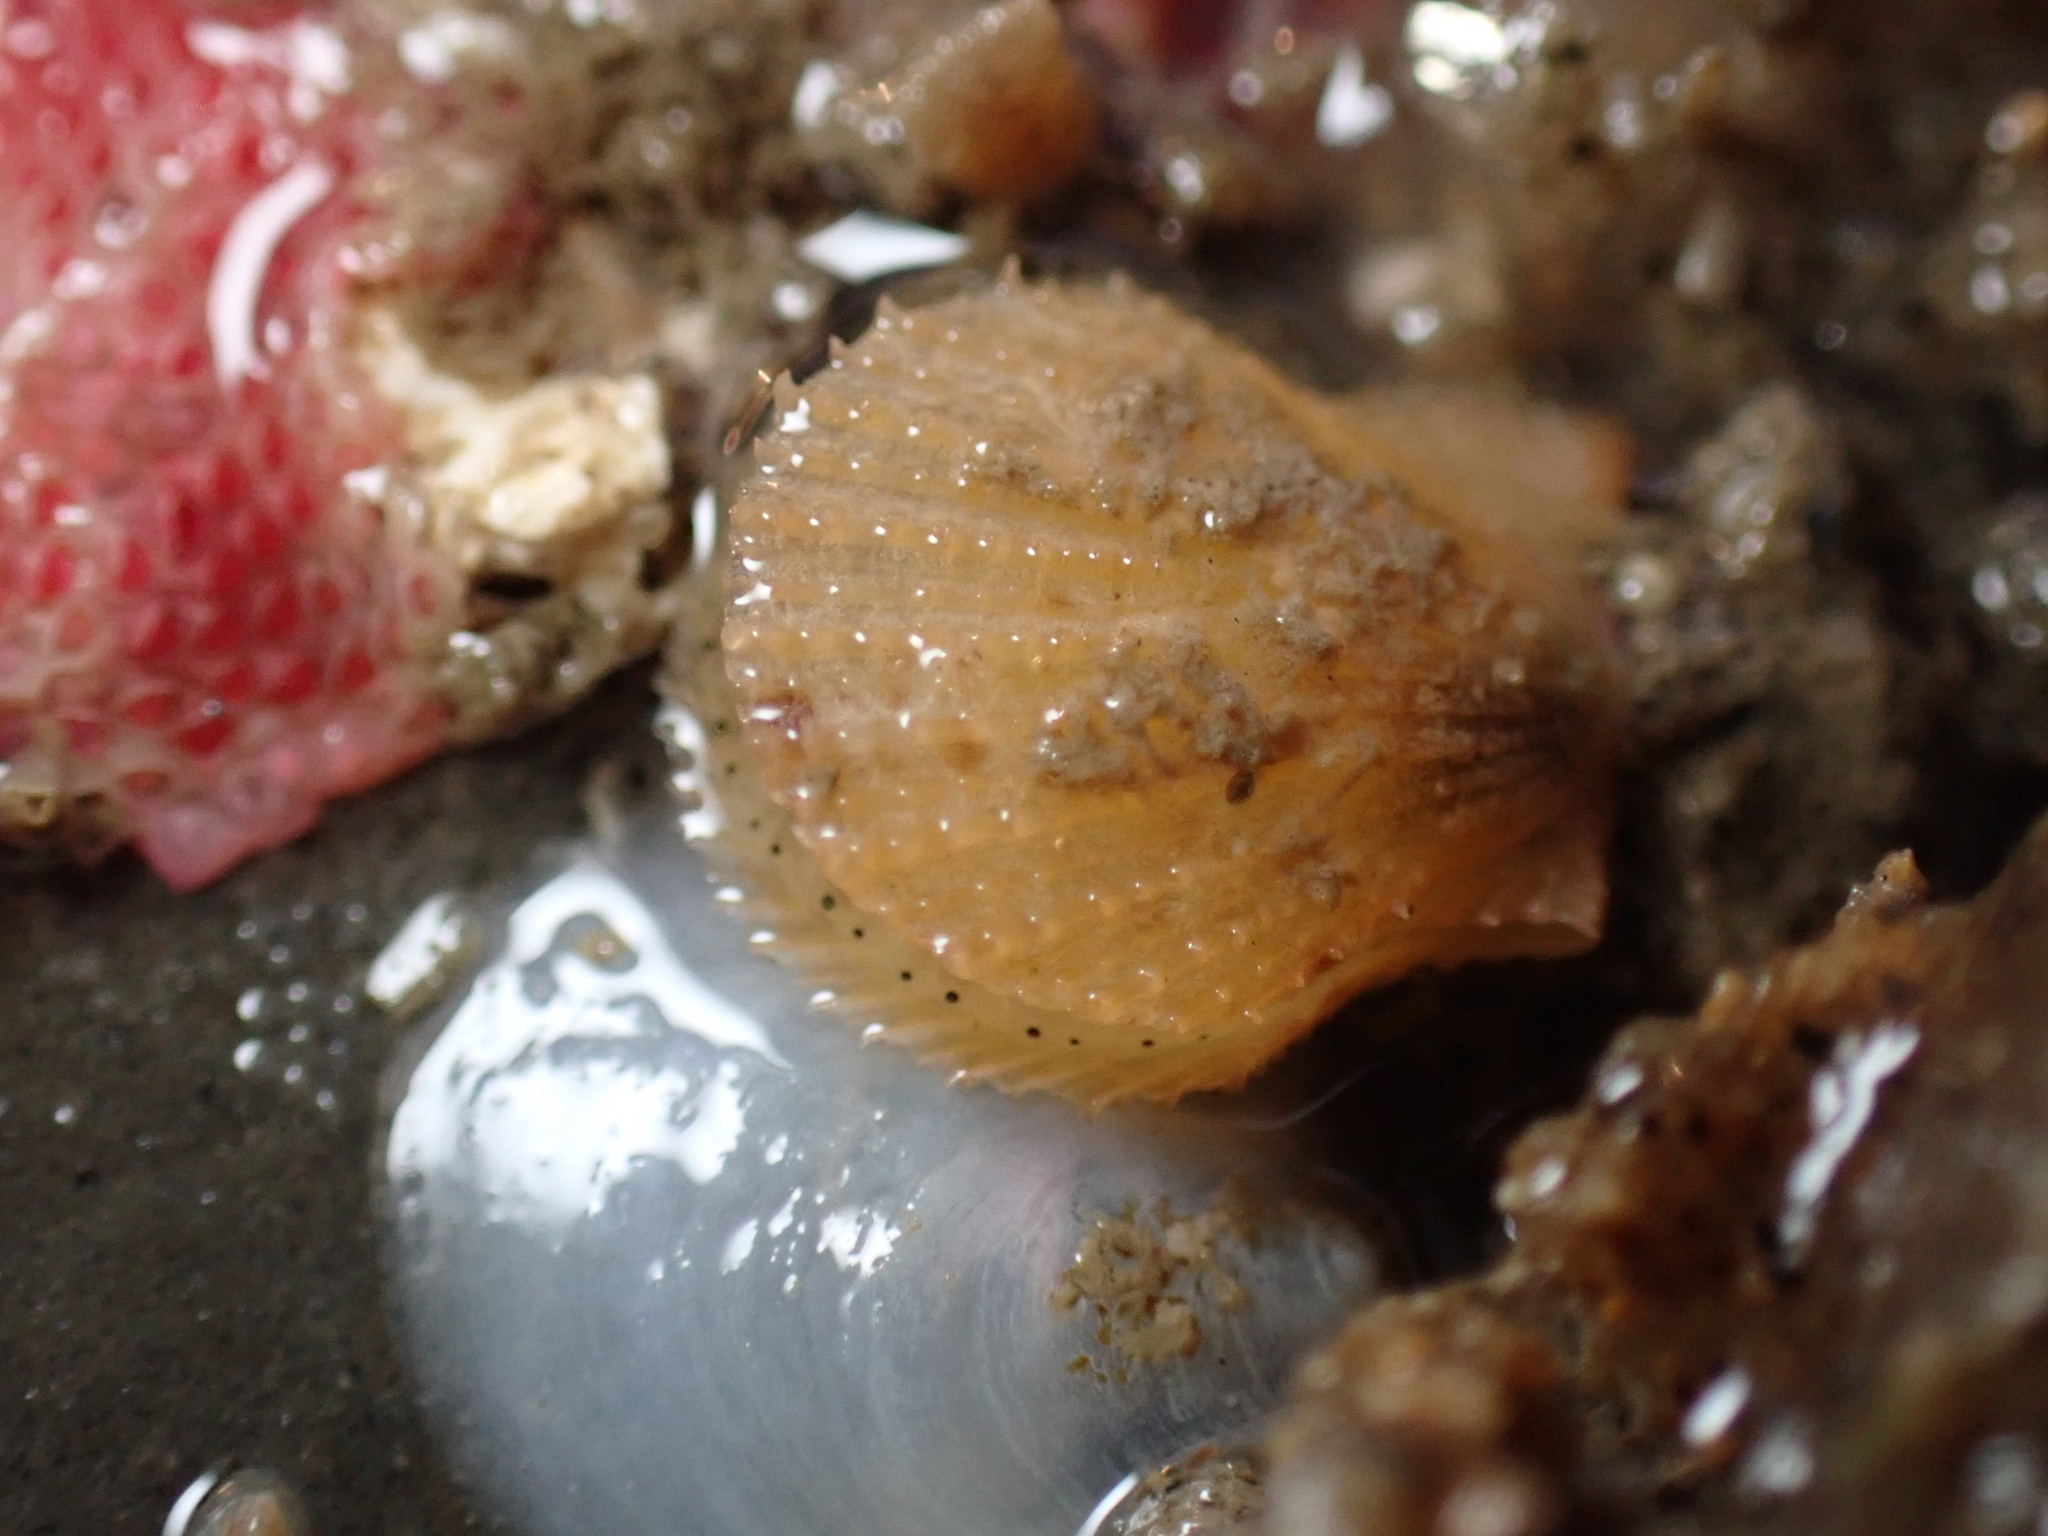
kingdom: Animalia
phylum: Mollusca
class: Bivalvia
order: Pectinida
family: Pectinidae
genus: Crassadoma
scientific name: Crassadoma gigantea
